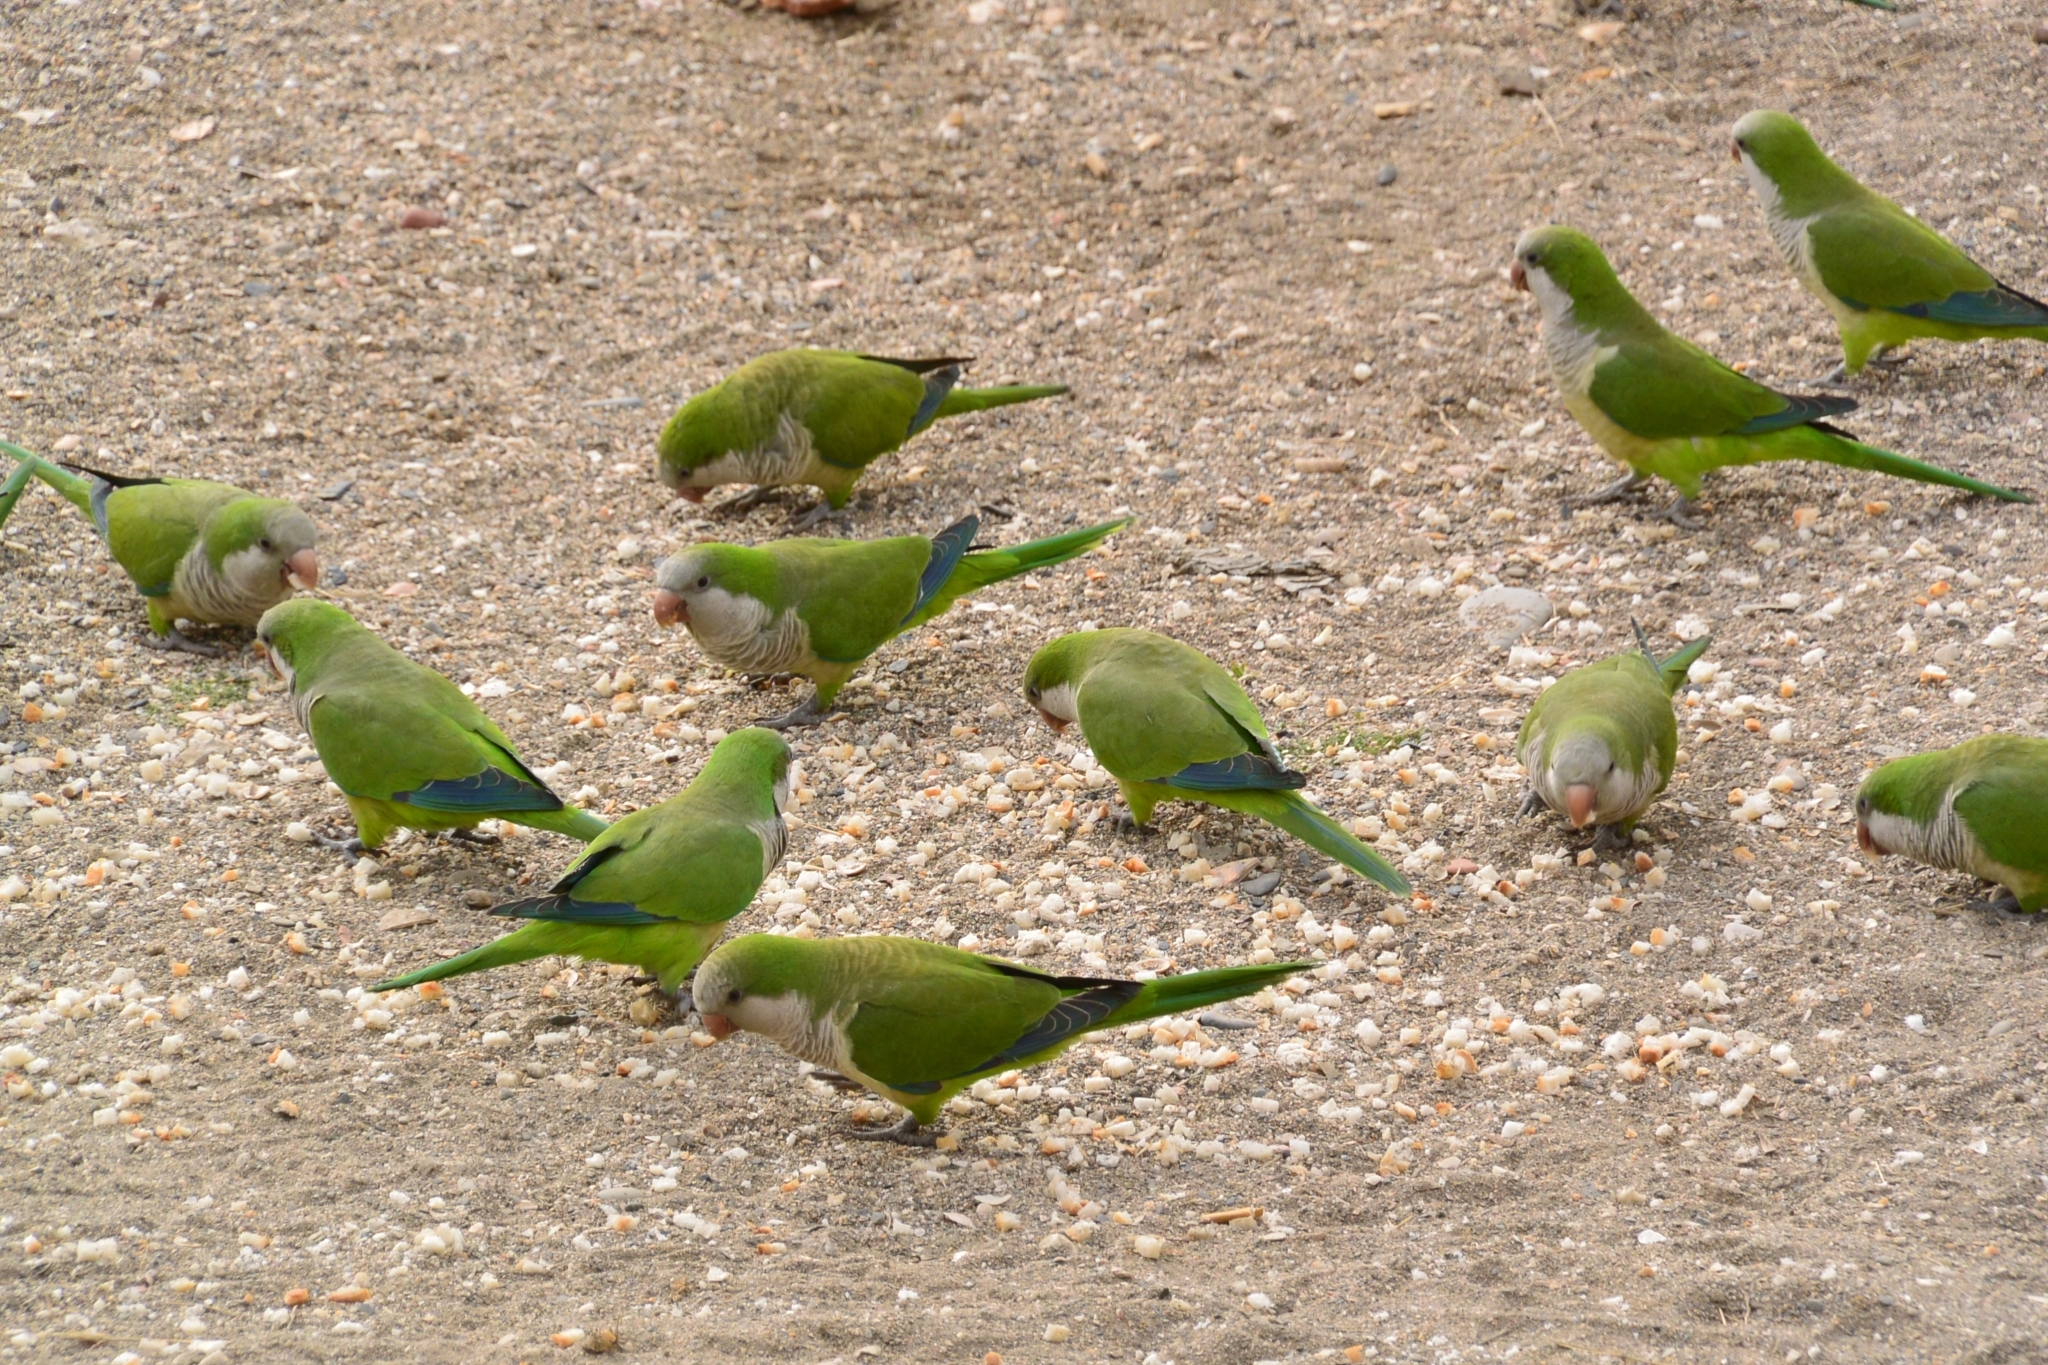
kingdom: Animalia
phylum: Chordata
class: Aves
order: Psittaciformes
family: Psittacidae
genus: Myiopsitta
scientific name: Myiopsitta monachus
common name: Monk parakeet
